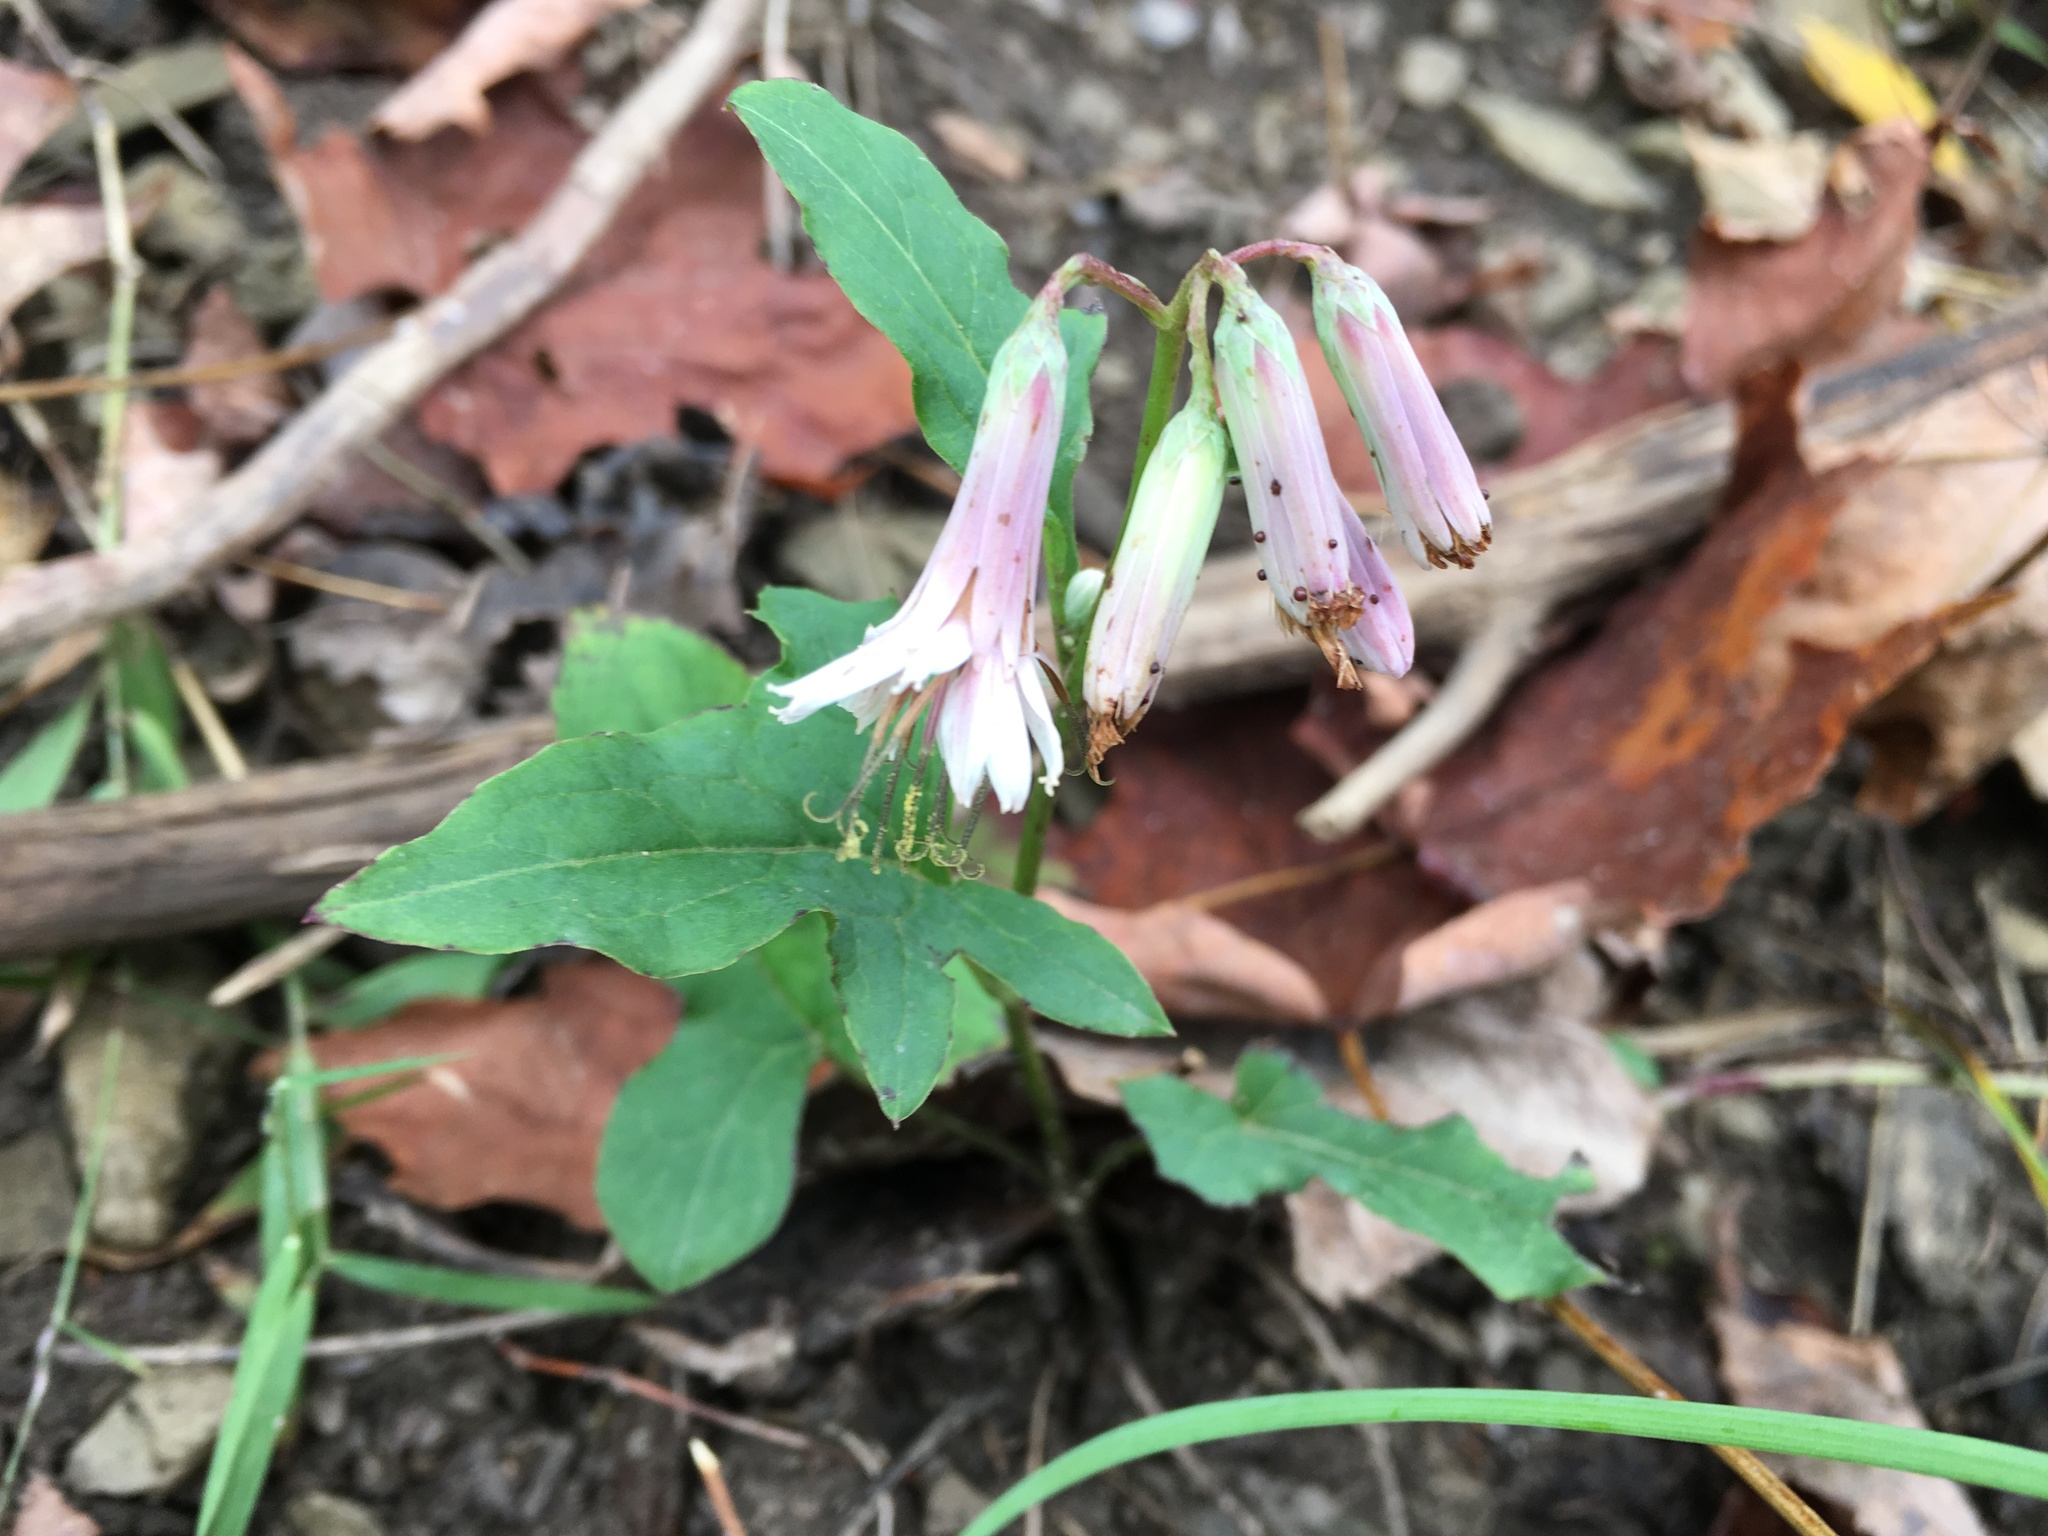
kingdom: Plantae
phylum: Tracheophyta
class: Magnoliopsida
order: Asterales
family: Asteraceae
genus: Nabalus
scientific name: Nabalus albus
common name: White rattlesnakeroot
